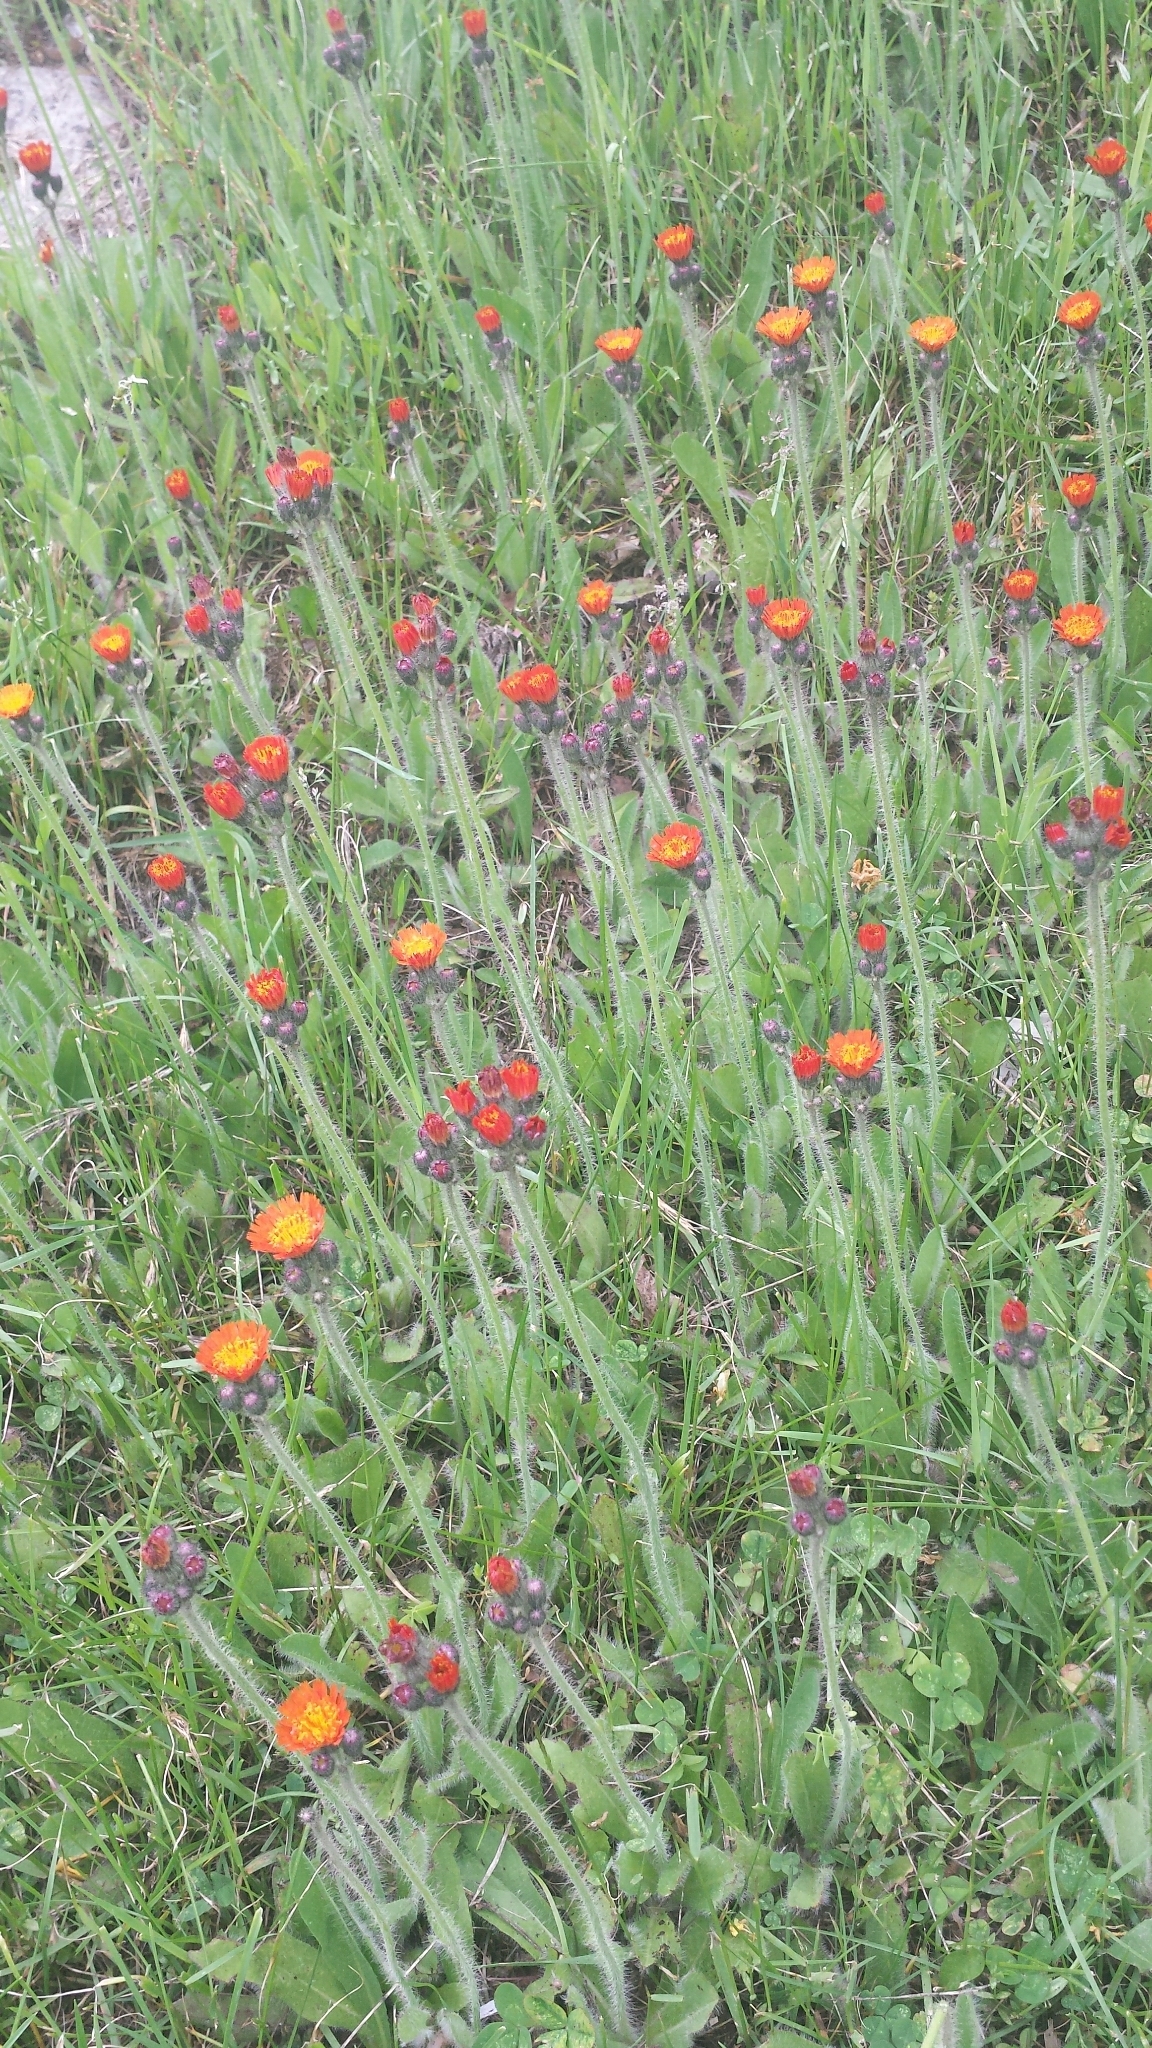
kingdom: Plantae
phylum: Tracheophyta
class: Magnoliopsida
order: Asterales
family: Asteraceae
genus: Pilosella
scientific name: Pilosella aurantiaca
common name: Fox-and-cubs
